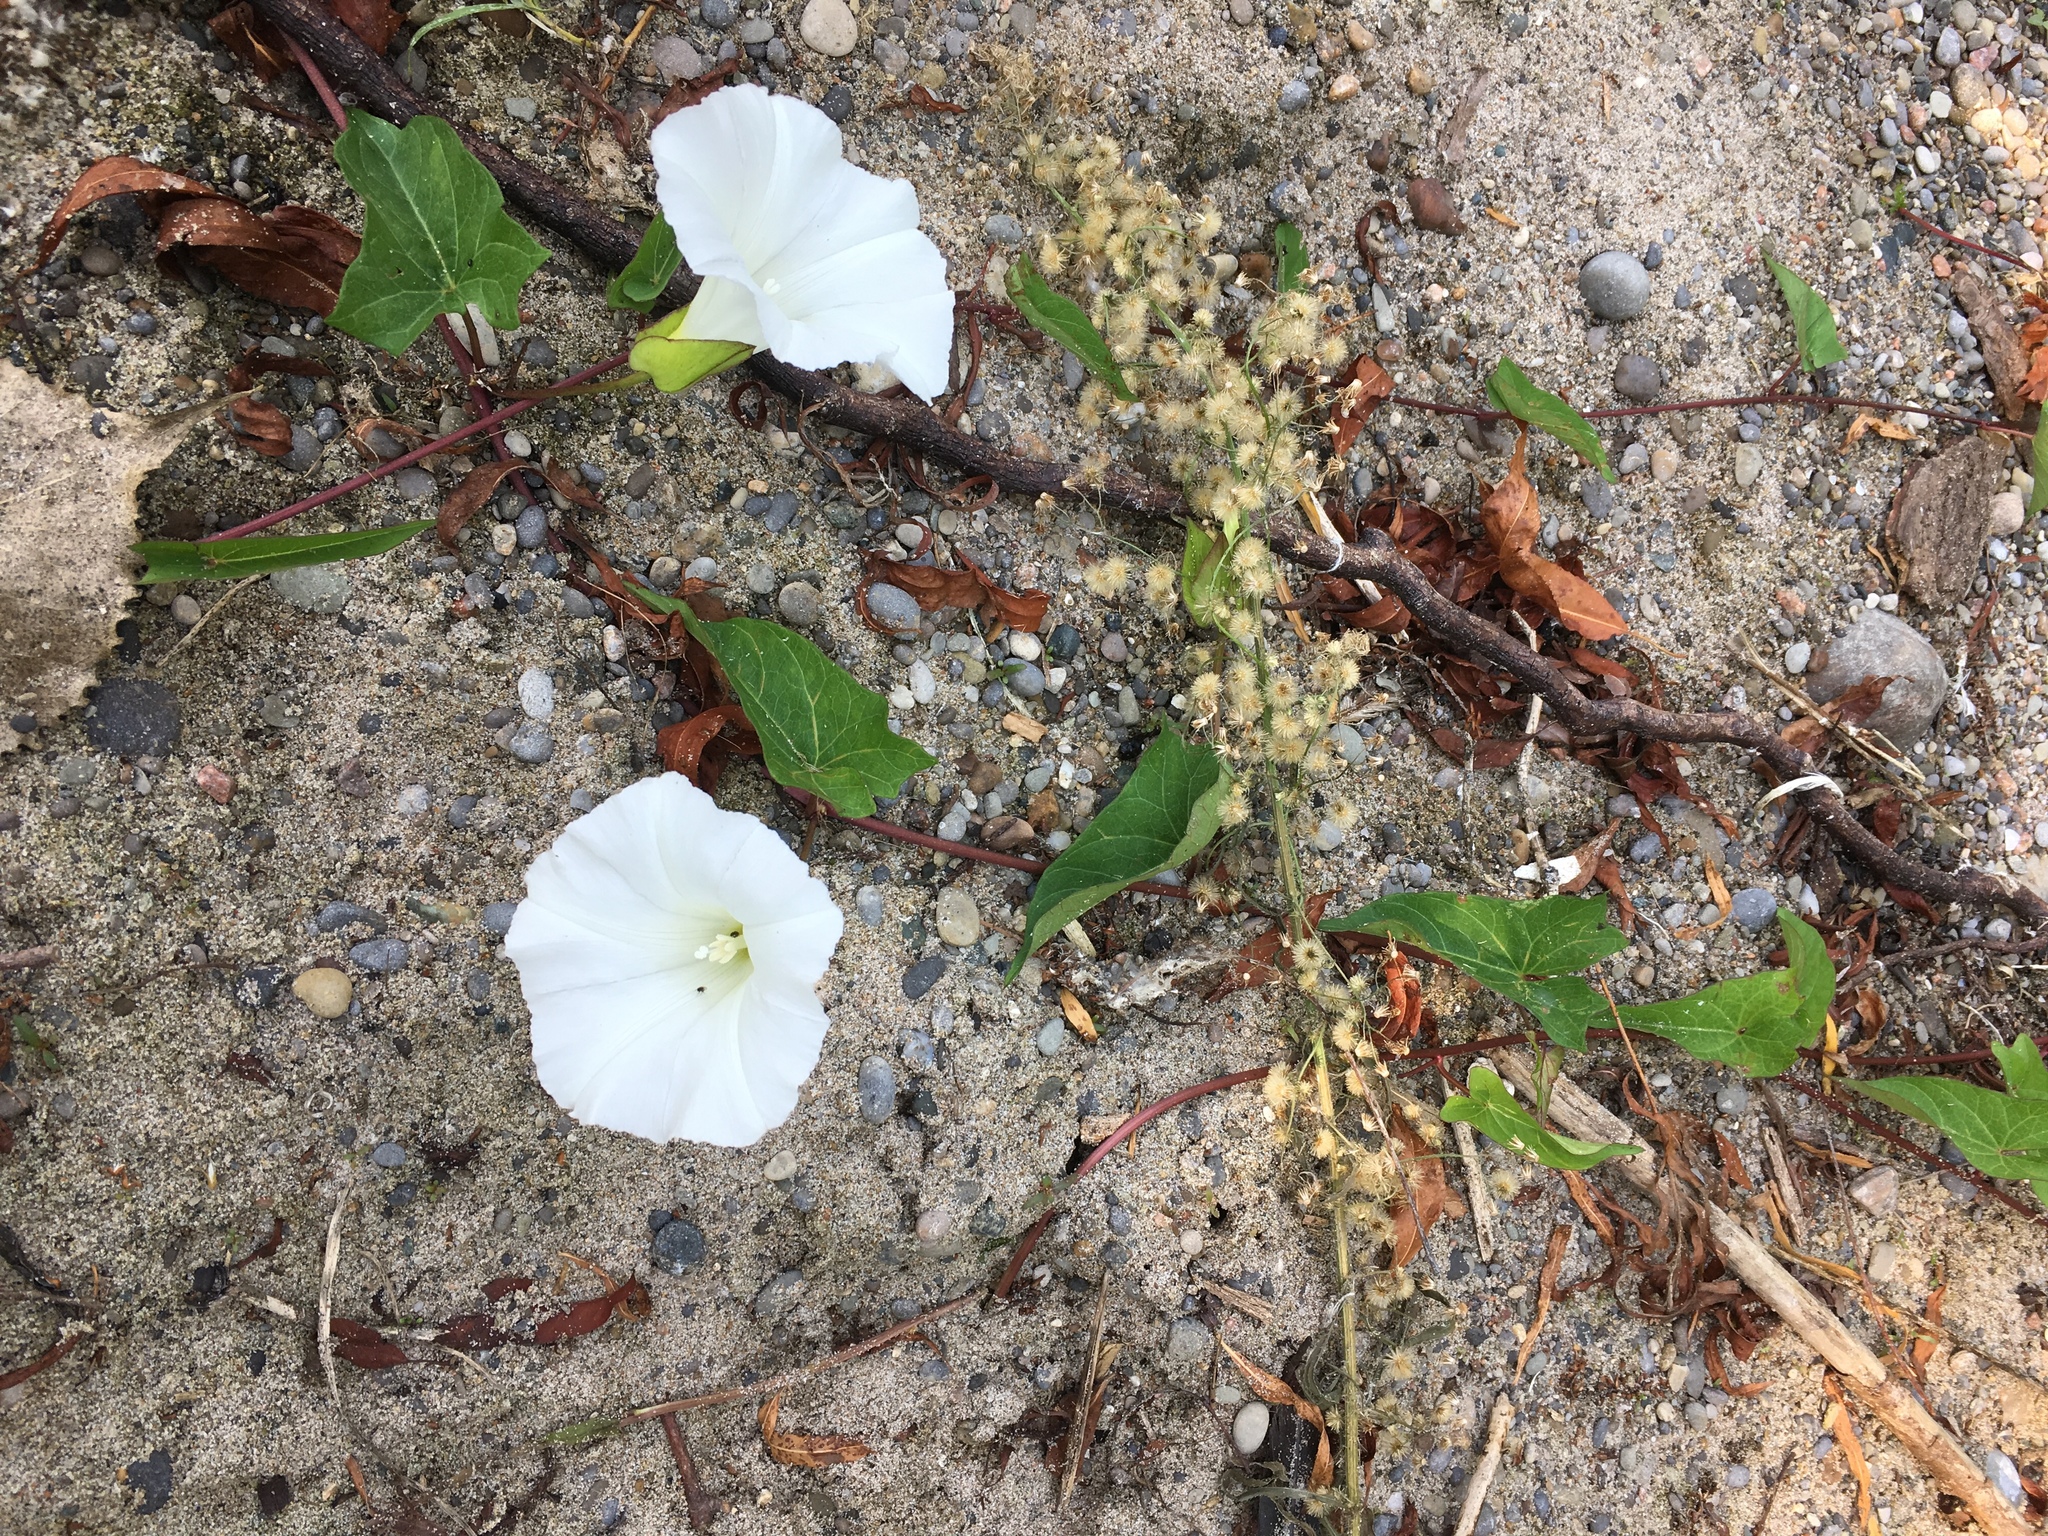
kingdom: Plantae
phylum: Tracheophyta
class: Magnoliopsida
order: Solanales
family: Convolvulaceae
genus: Calystegia
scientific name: Calystegia sepium
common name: Hedge bindweed
